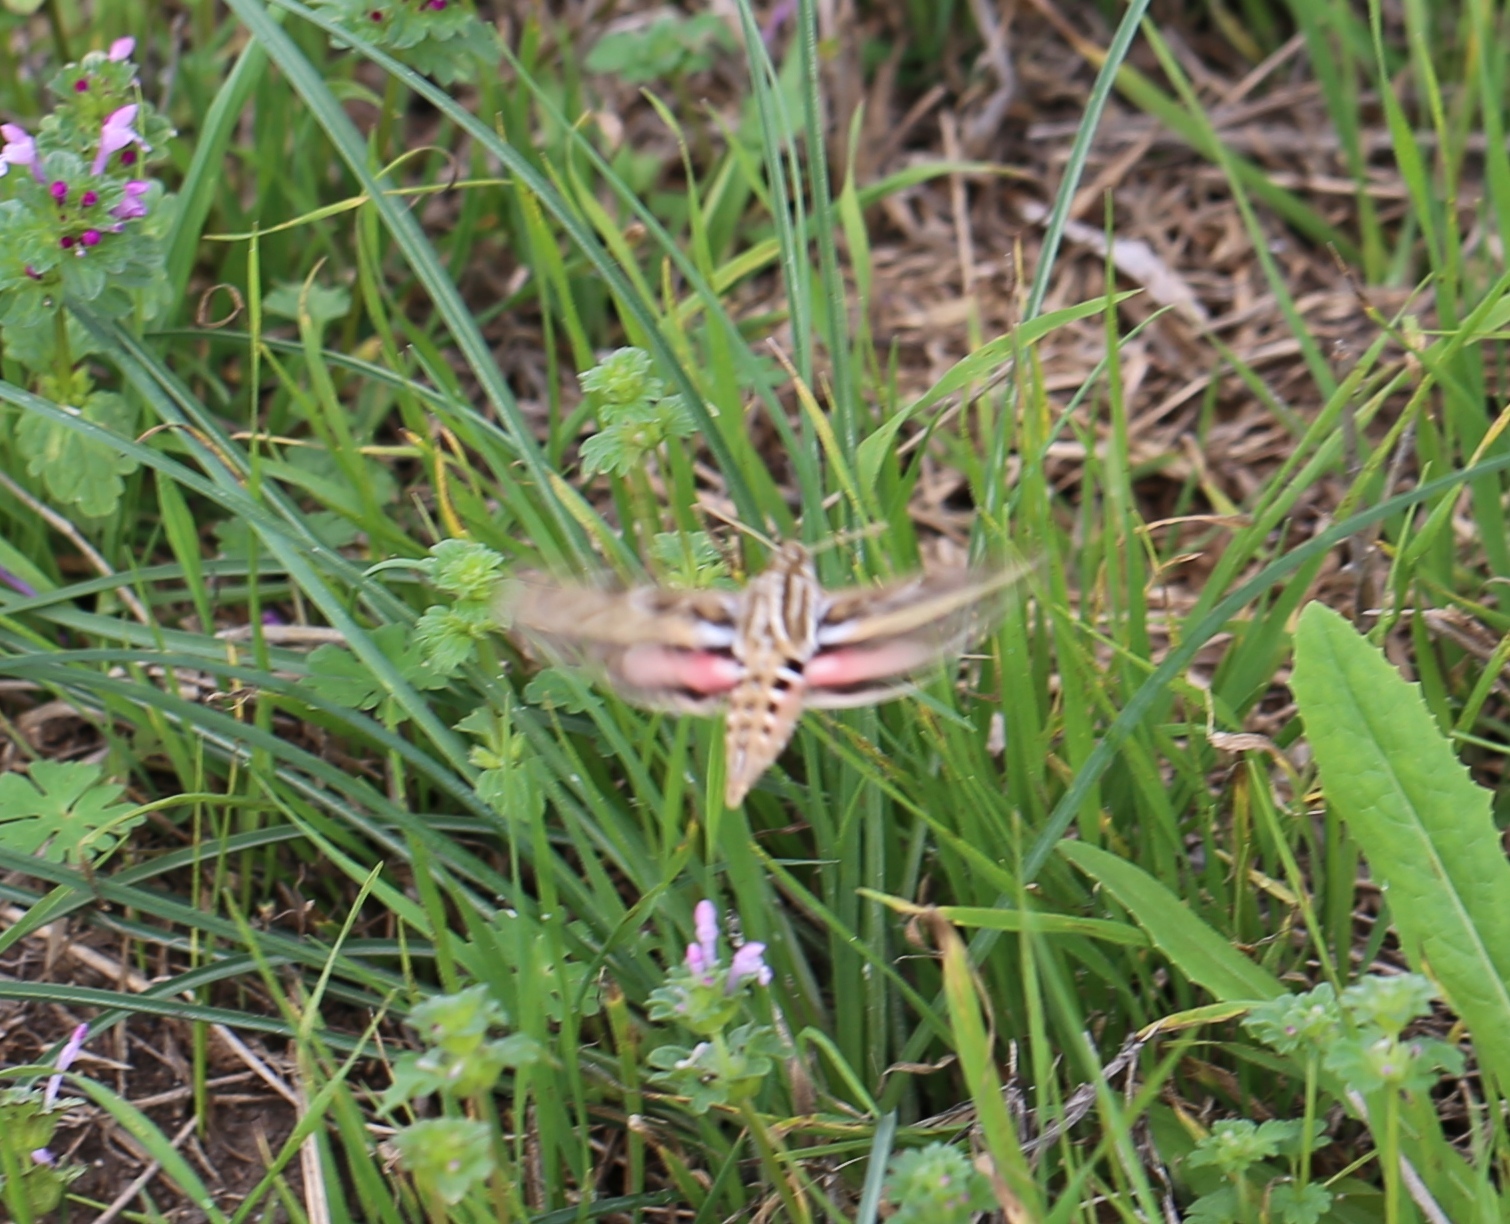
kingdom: Animalia
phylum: Arthropoda
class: Insecta
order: Lepidoptera
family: Sphingidae
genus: Hyles
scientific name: Hyles lineata
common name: White-lined sphinx
